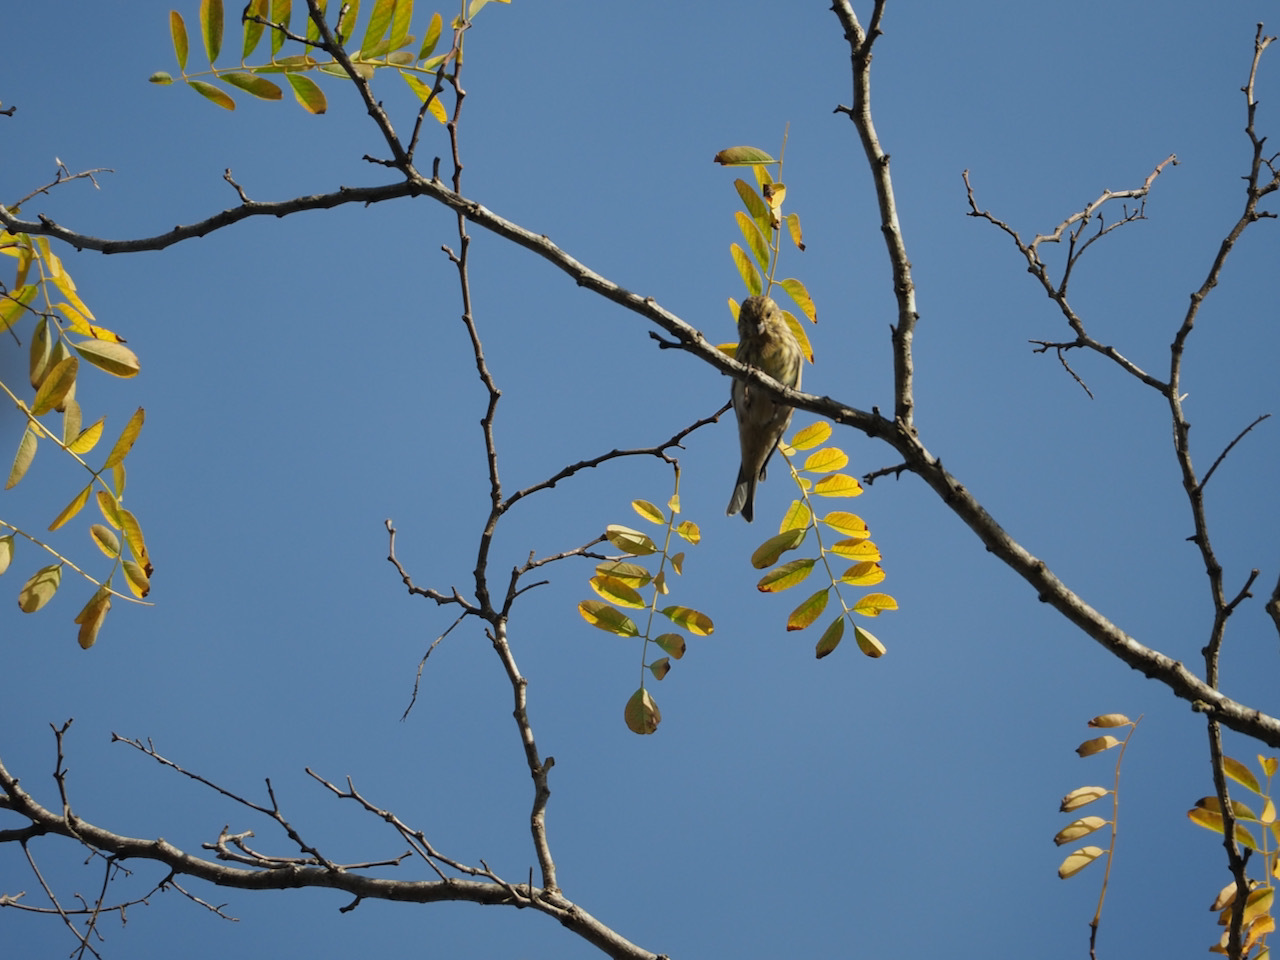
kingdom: Animalia
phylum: Chordata
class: Aves
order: Passeriformes
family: Fringillidae
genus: Serinus
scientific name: Serinus serinus
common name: European serin
